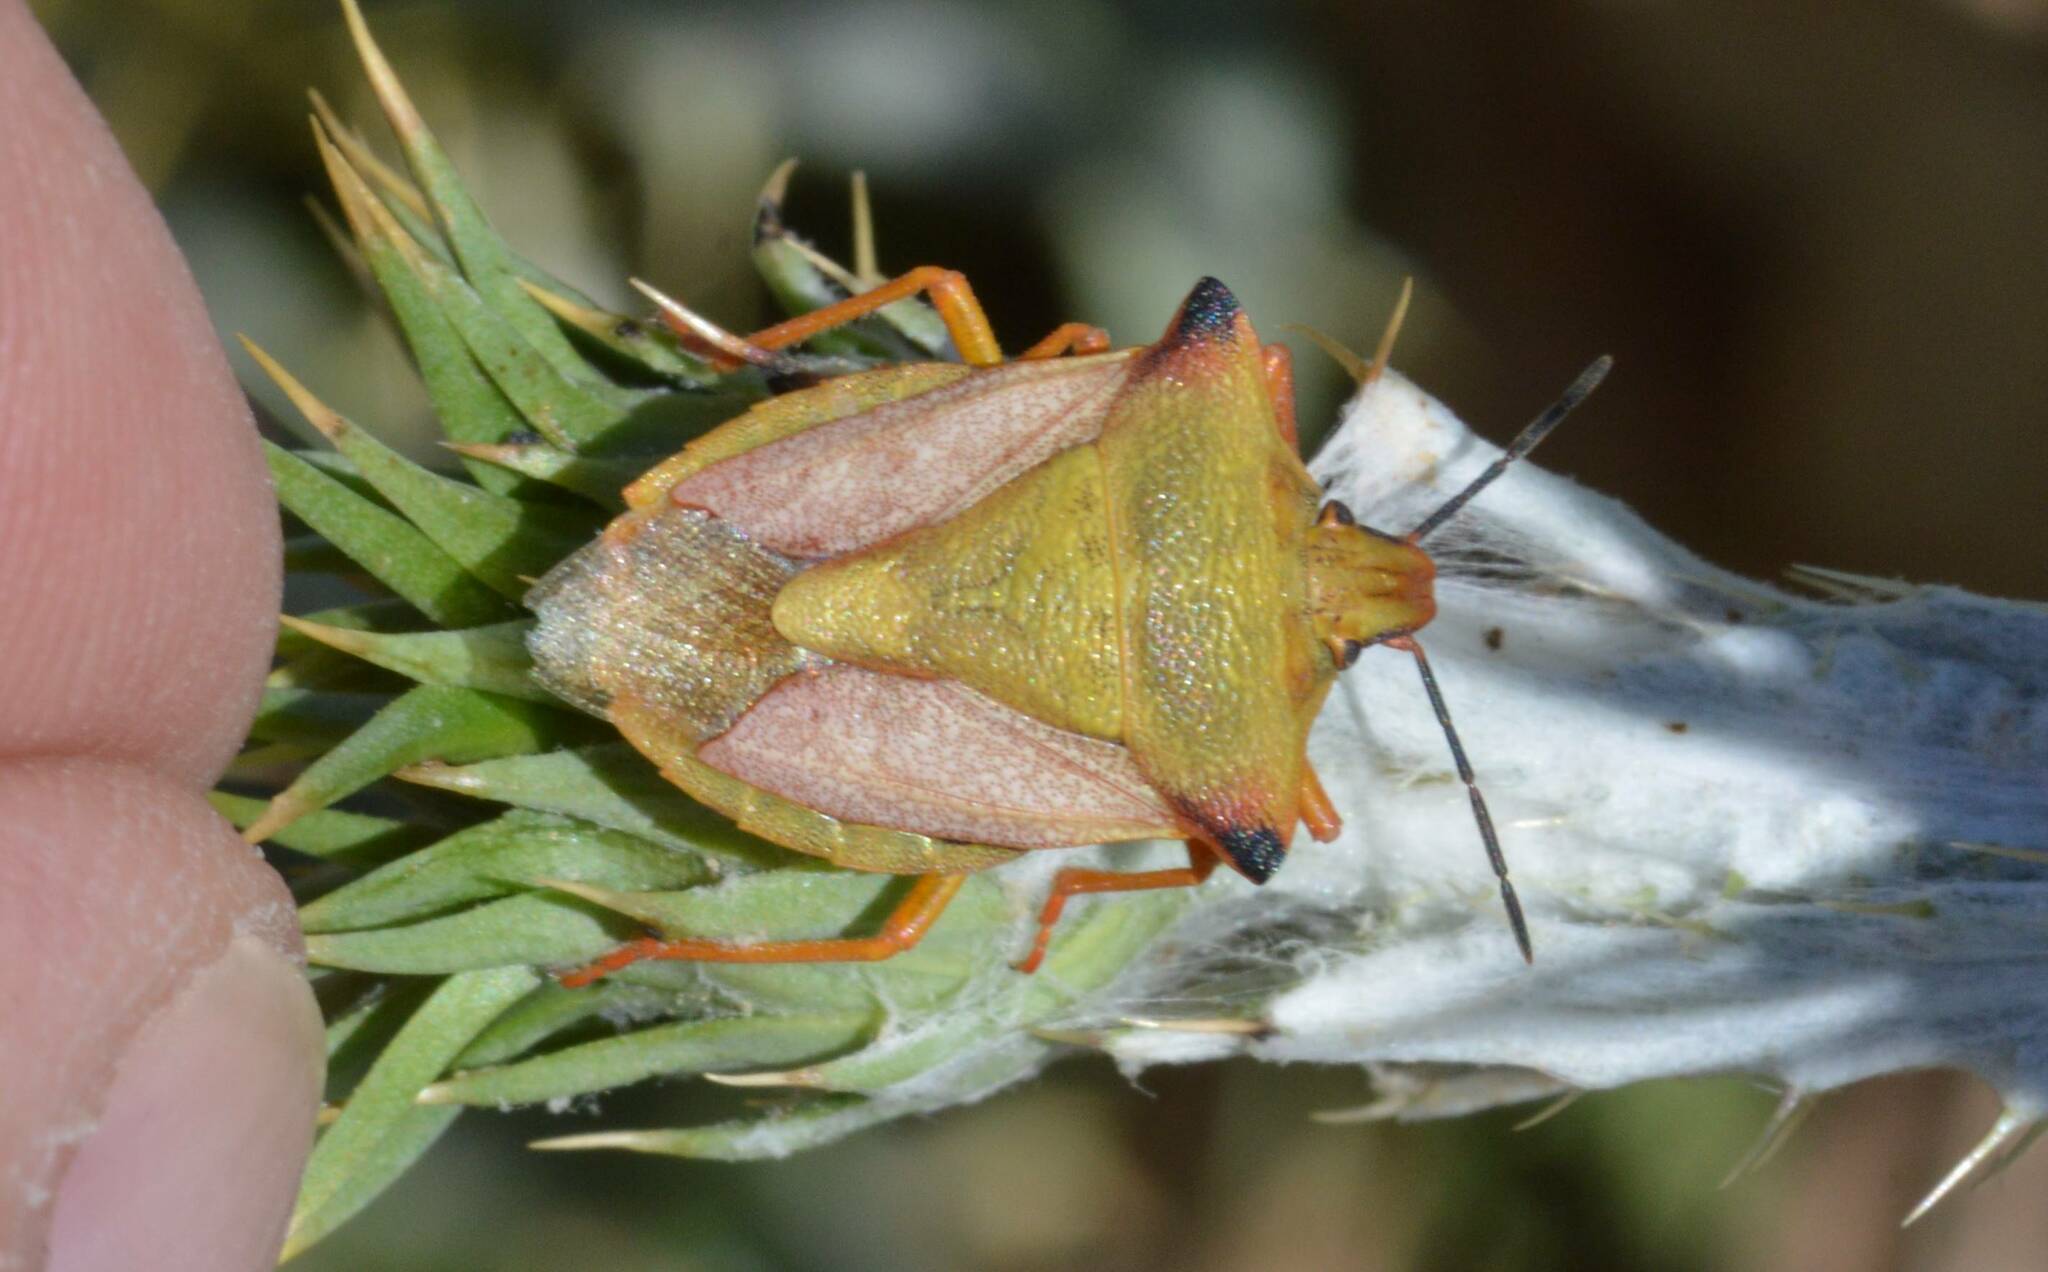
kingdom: Animalia
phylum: Arthropoda
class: Insecta
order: Hemiptera
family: Pentatomidae
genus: Carpocoris
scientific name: Carpocoris mediterraneus
